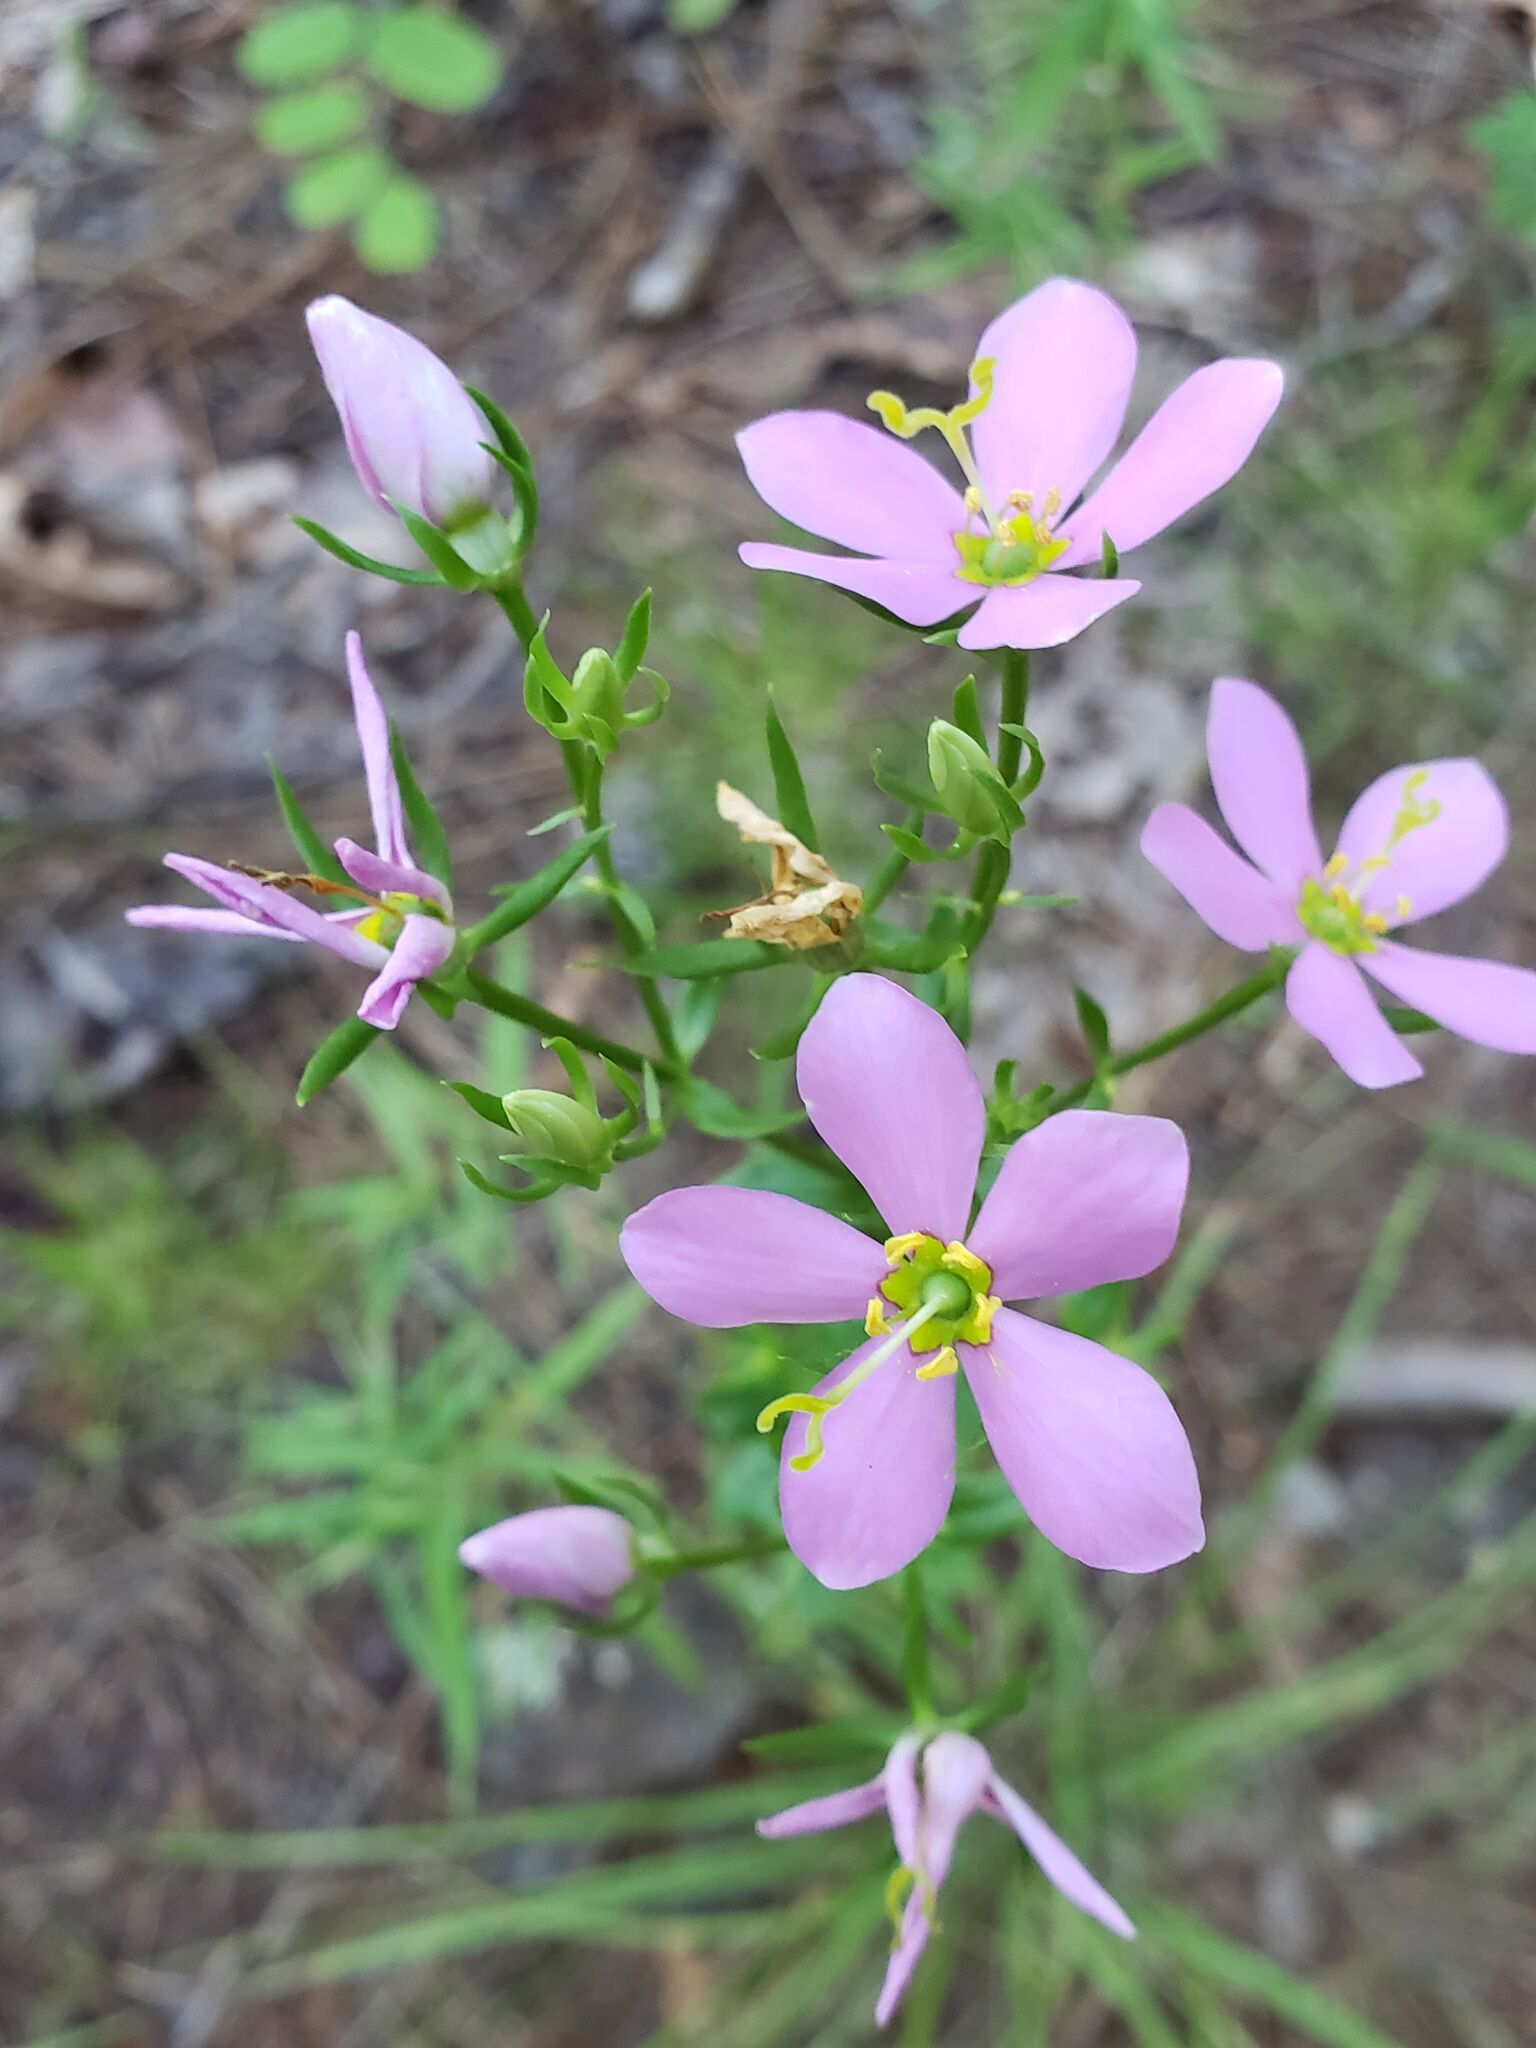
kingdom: Plantae
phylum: Tracheophyta
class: Magnoliopsida
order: Gentianales
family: Gentianaceae
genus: Sabatia
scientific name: Sabatia angularis
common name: Rose-pink
